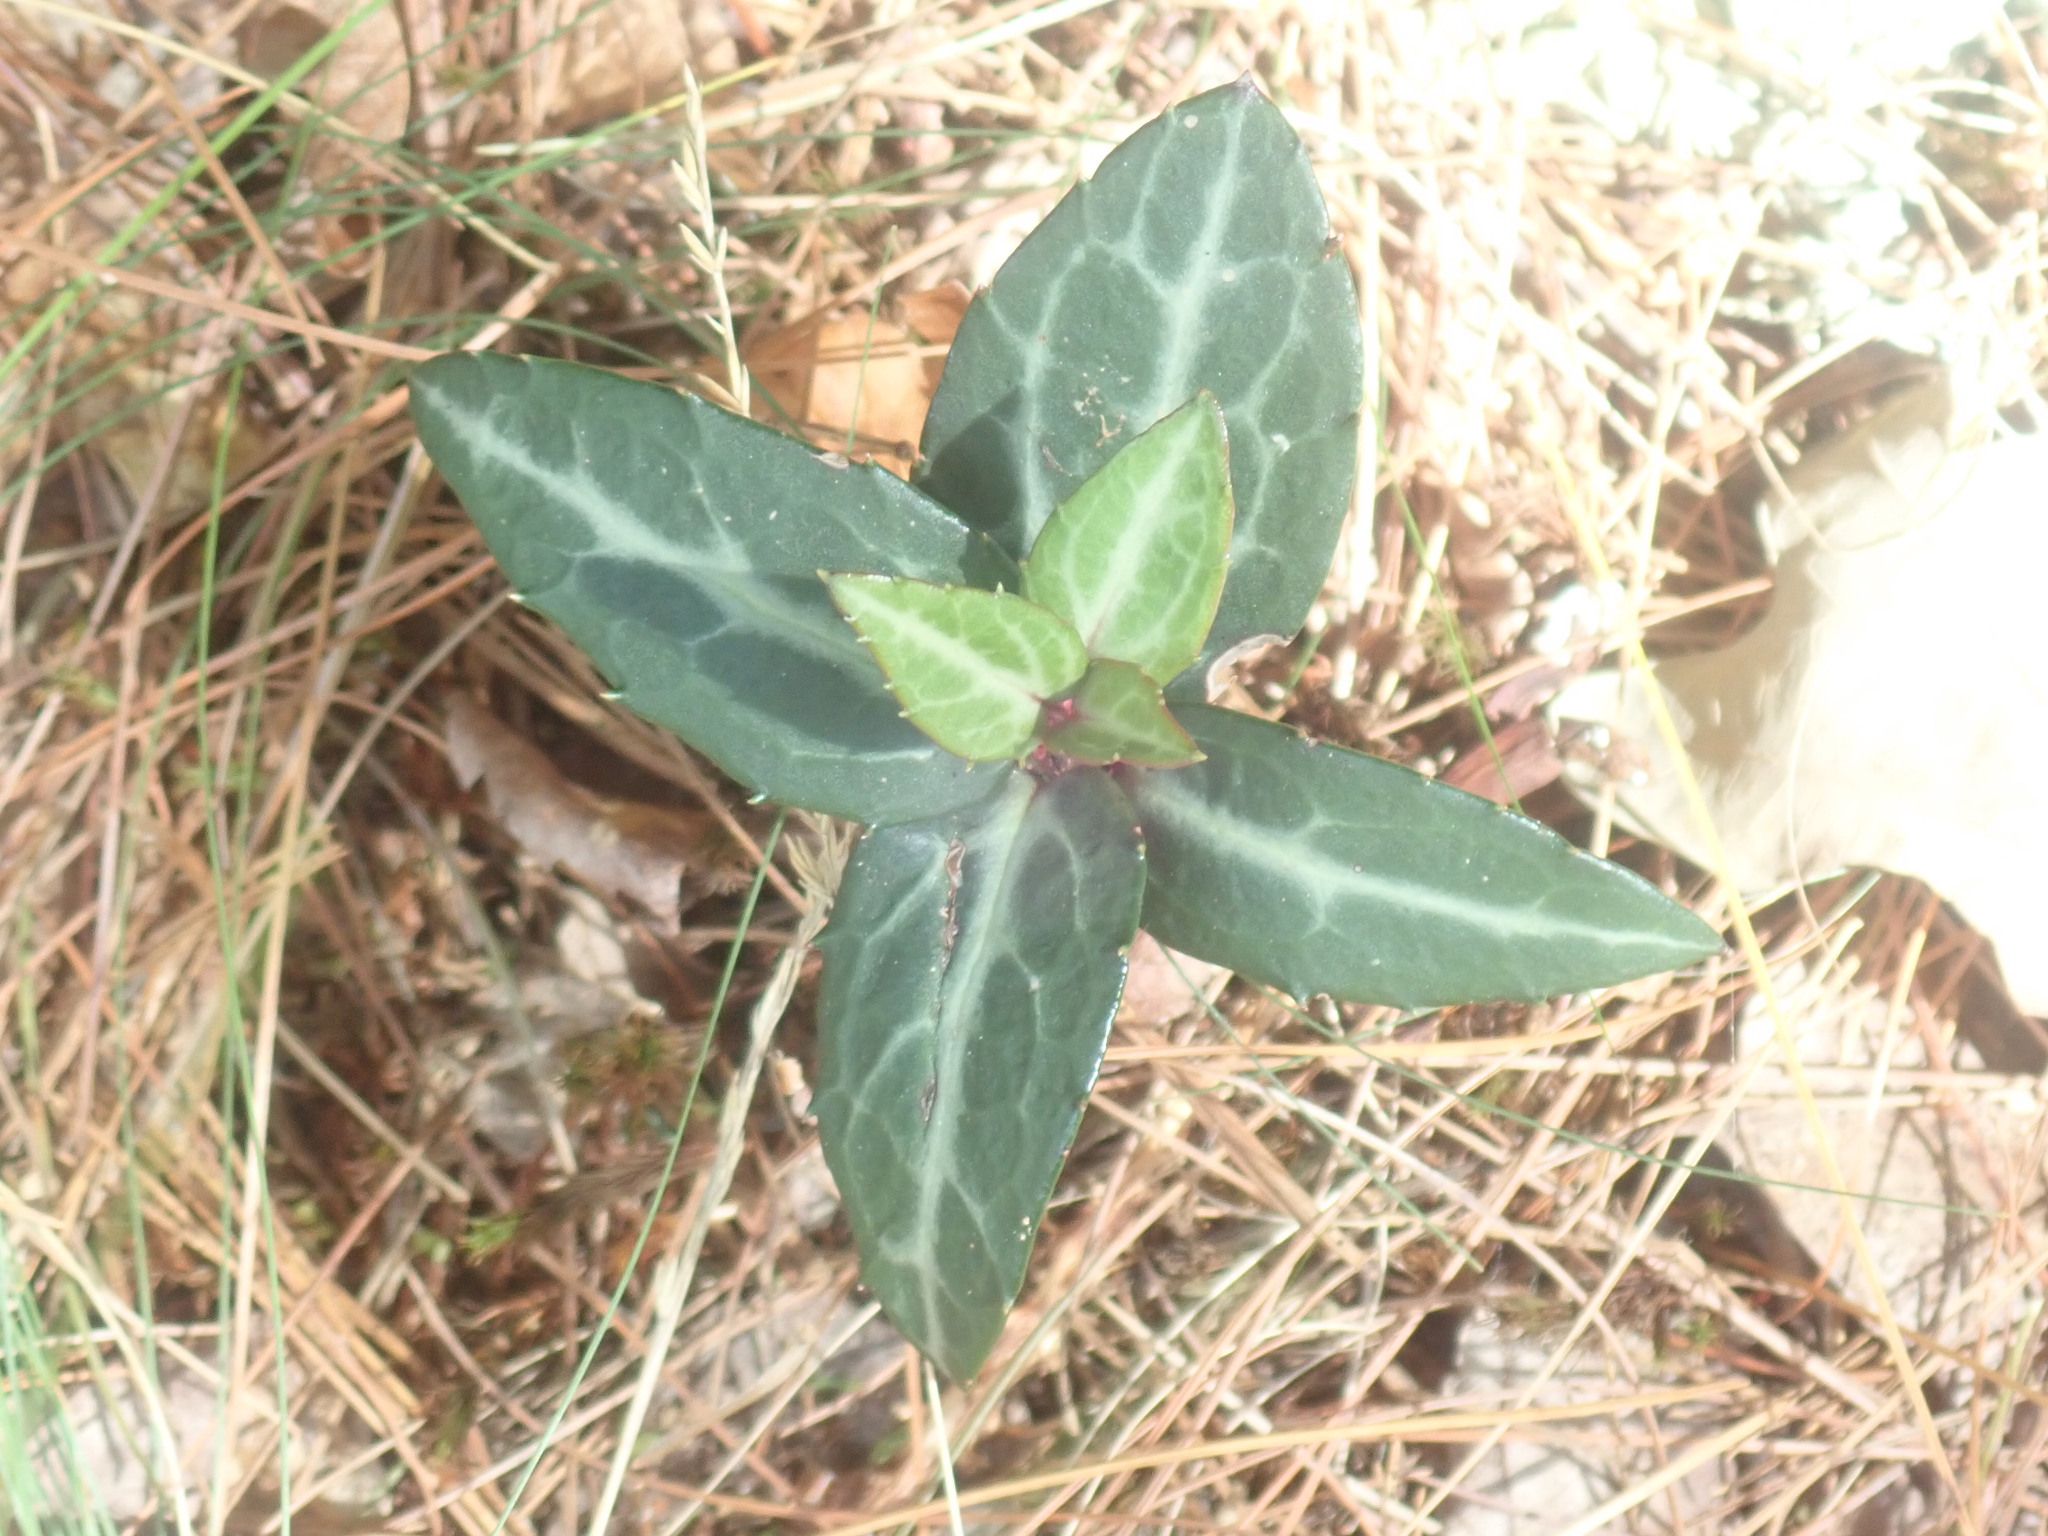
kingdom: Plantae
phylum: Tracheophyta
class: Magnoliopsida
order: Ericales
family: Ericaceae
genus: Chimaphila
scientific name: Chimaphila maculata
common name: Spotted pipsissewa
